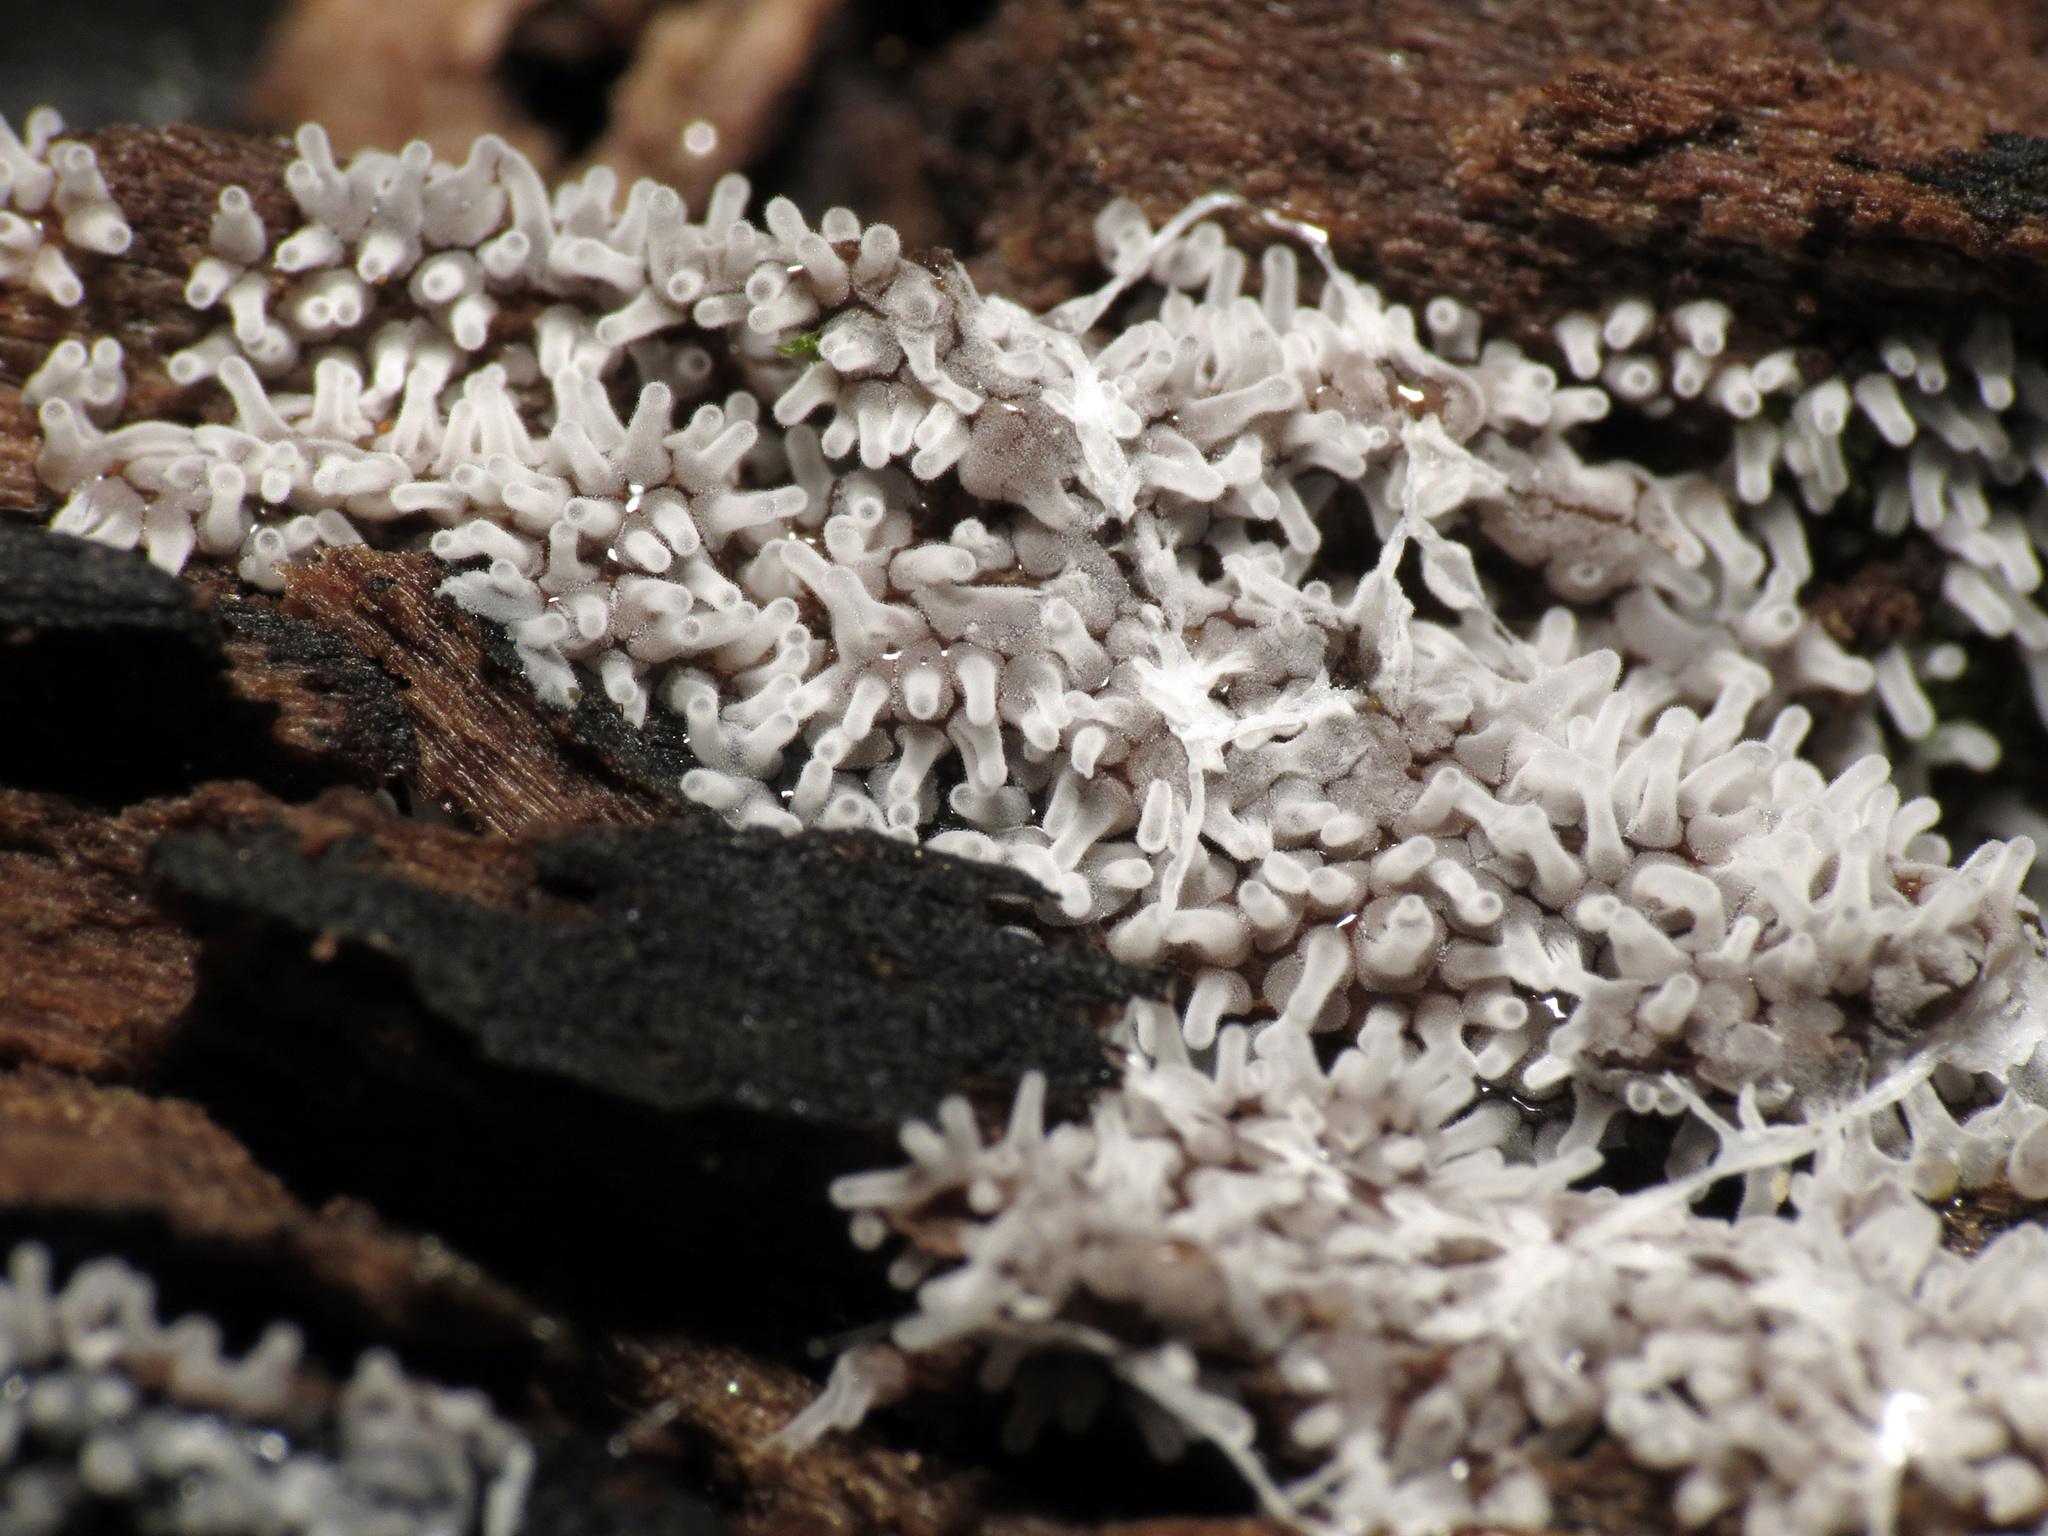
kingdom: Protozoa
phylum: Mycetozoa
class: Protosteliomycetes
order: Ceratiomyxales
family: Ceratiomyxaceae
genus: Ceratiomyxa
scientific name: Ceratiomyxa fruticulosa
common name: Honeycomb coral slime mold
